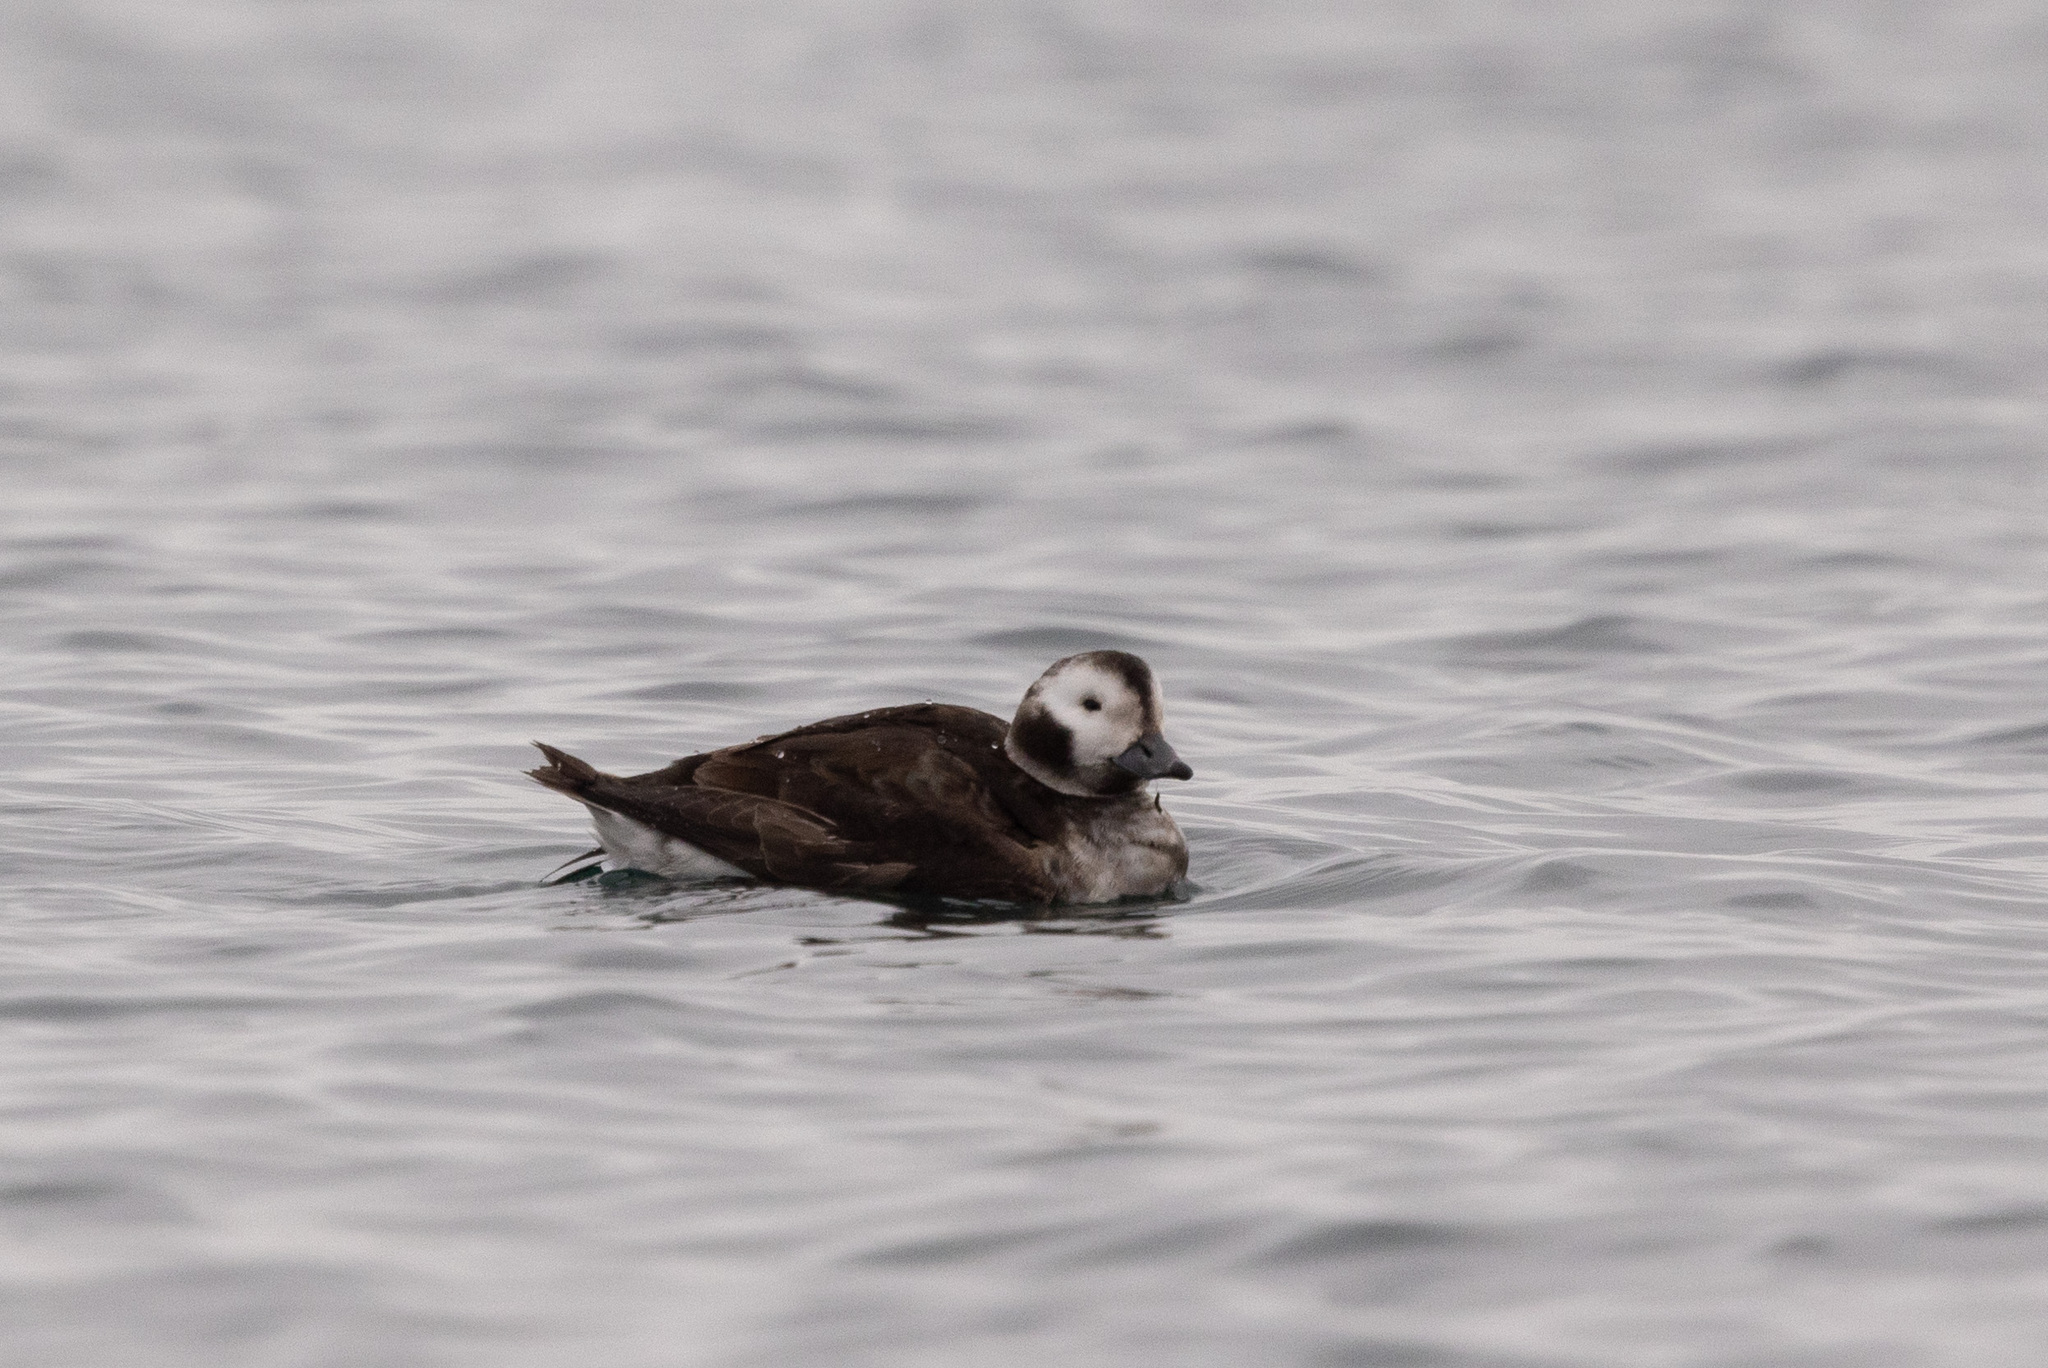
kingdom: Animalia
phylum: Chordata
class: Aves
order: Anseriformes
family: Anatidae
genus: Clangula
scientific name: Clangula hyemalis
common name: Long-tailed duck
